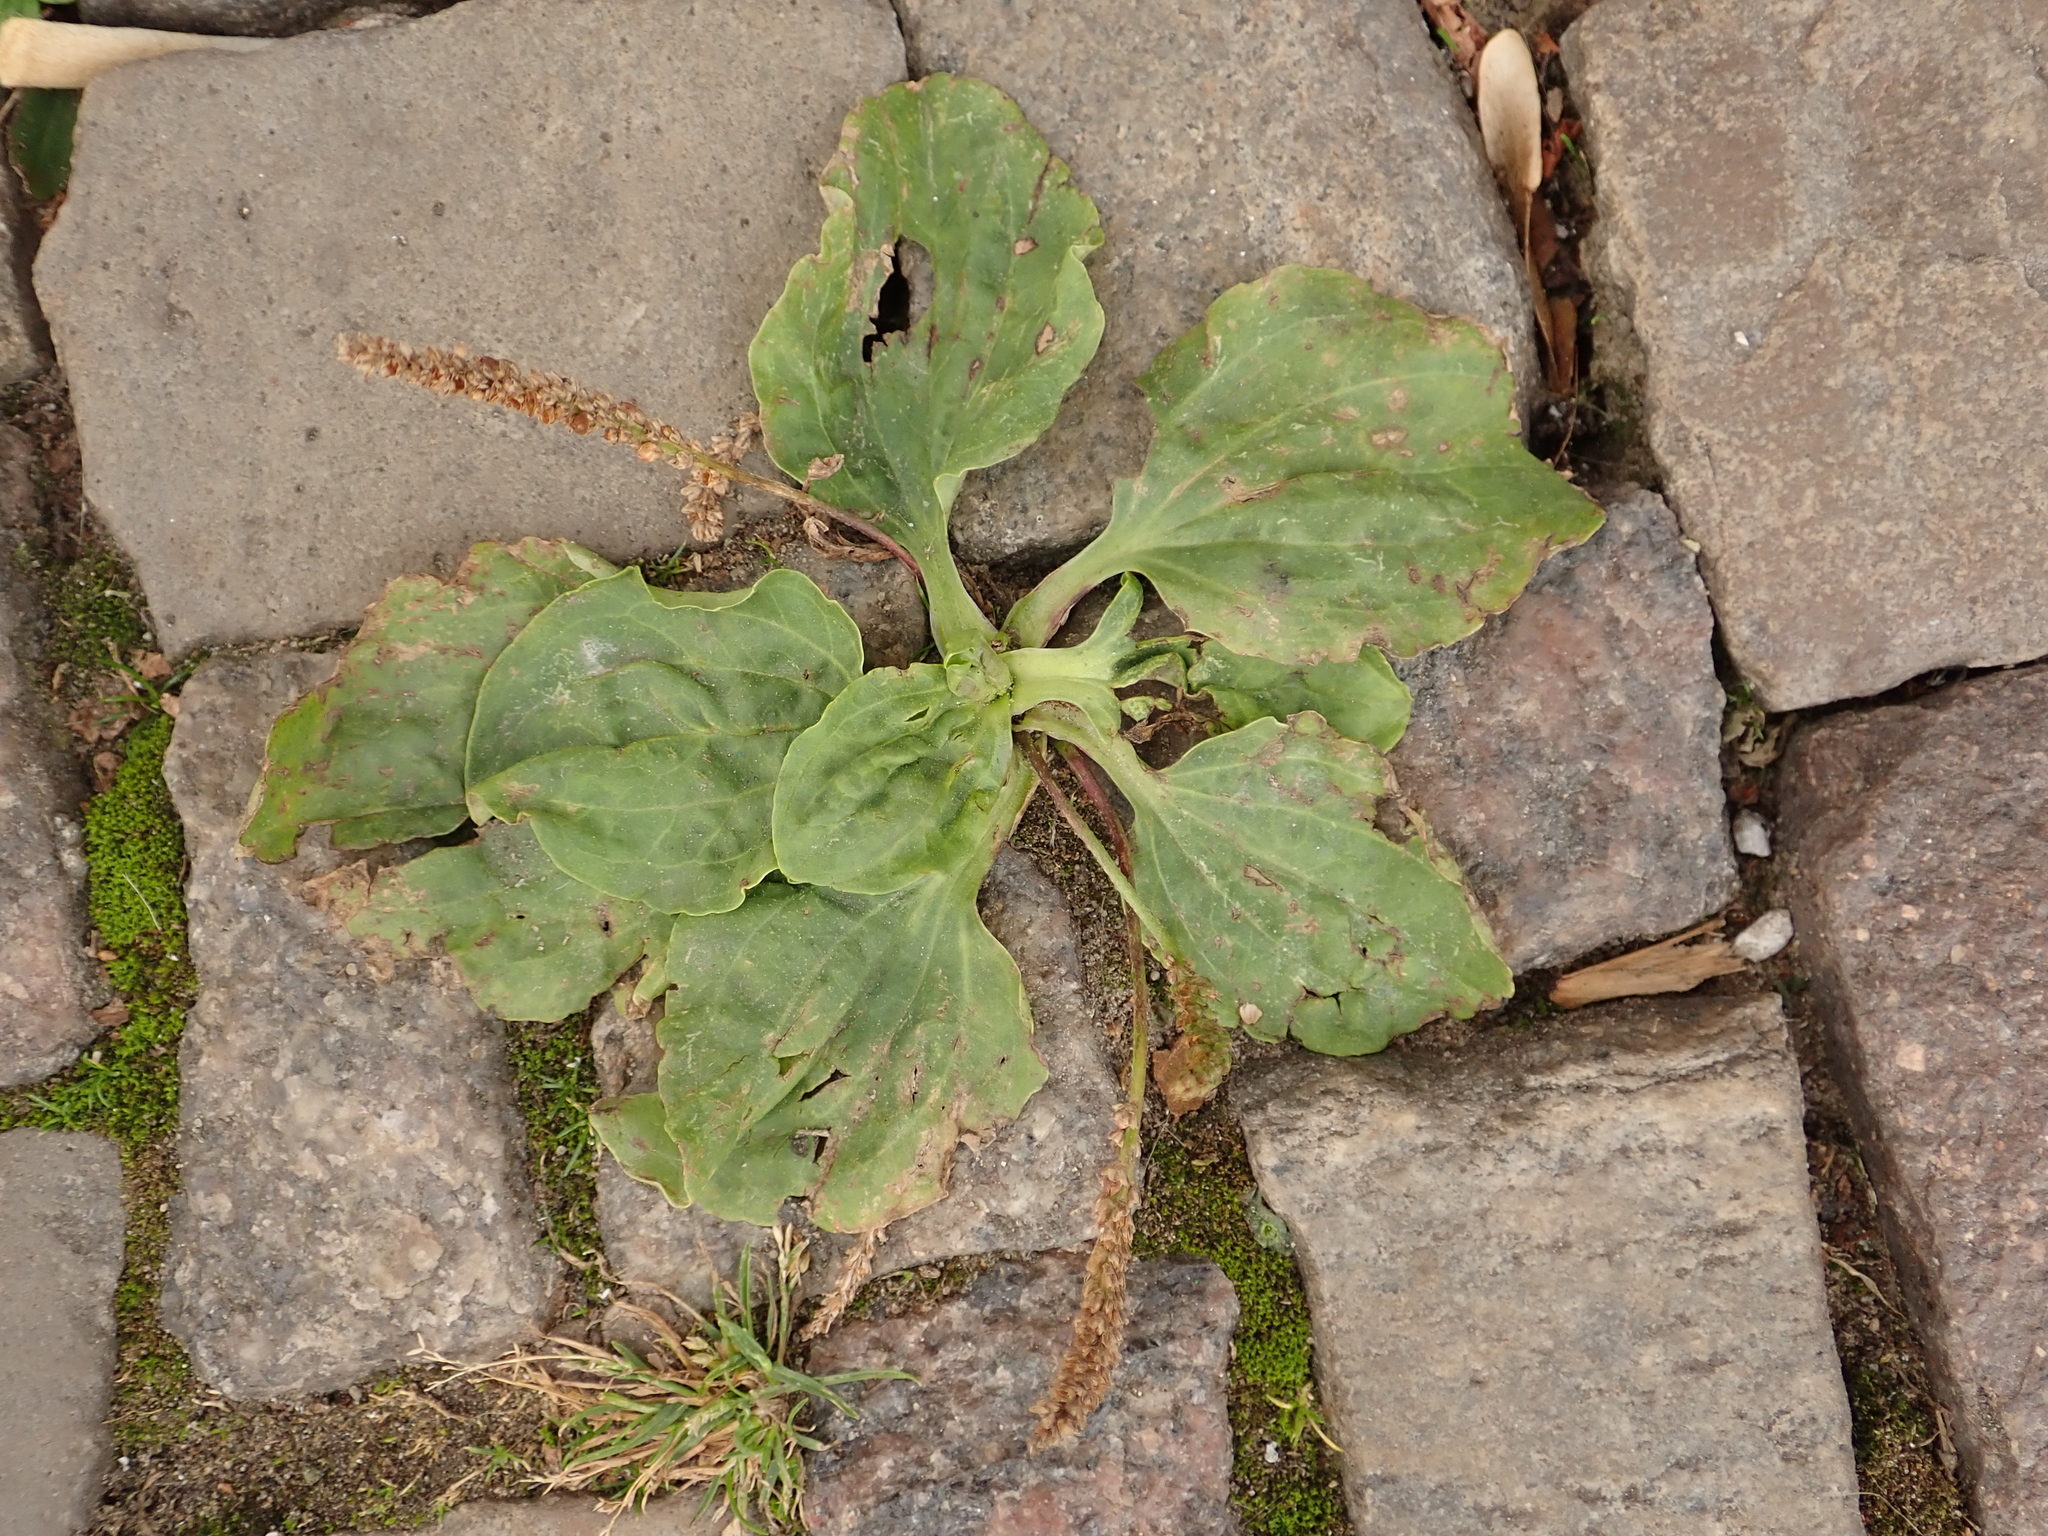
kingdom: Plantae
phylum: Tracheophyta
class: Magnoliopsida
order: Lamiales
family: Plantaginaceae
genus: Plantago
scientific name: Plantago major
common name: Common plantain
